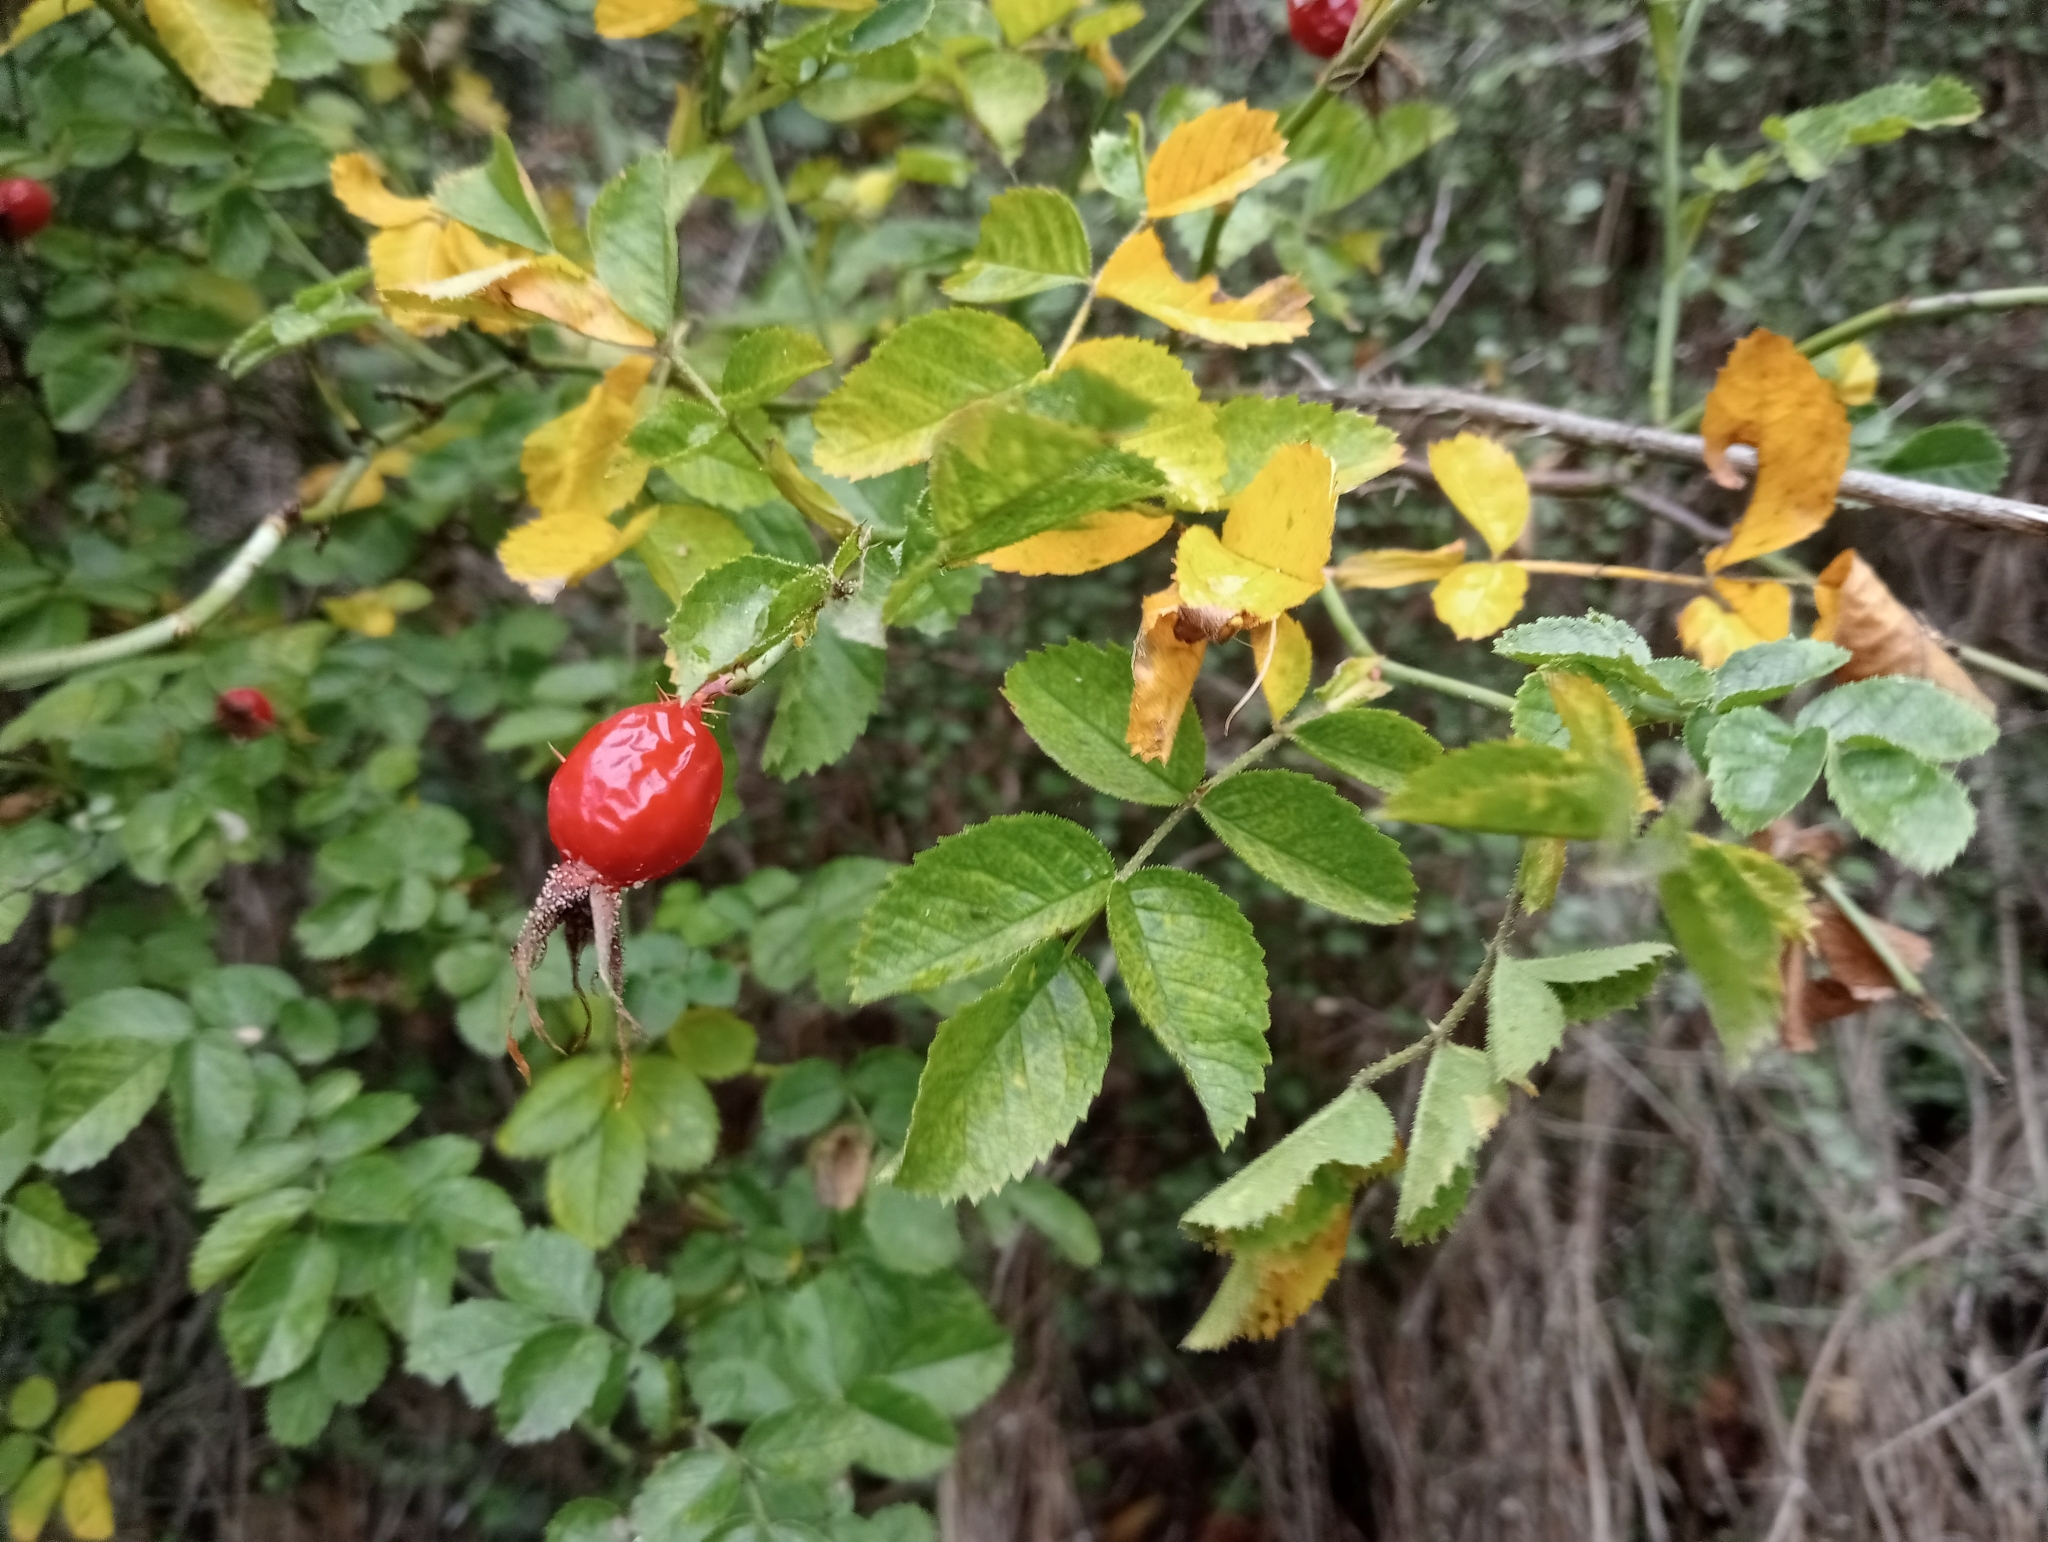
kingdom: Plantae
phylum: Tracheophyta
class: Magnoliopsida
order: Rosales
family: Rosaceae
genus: Rosa
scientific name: Rosa rubiginosa
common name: Sweet-briar
